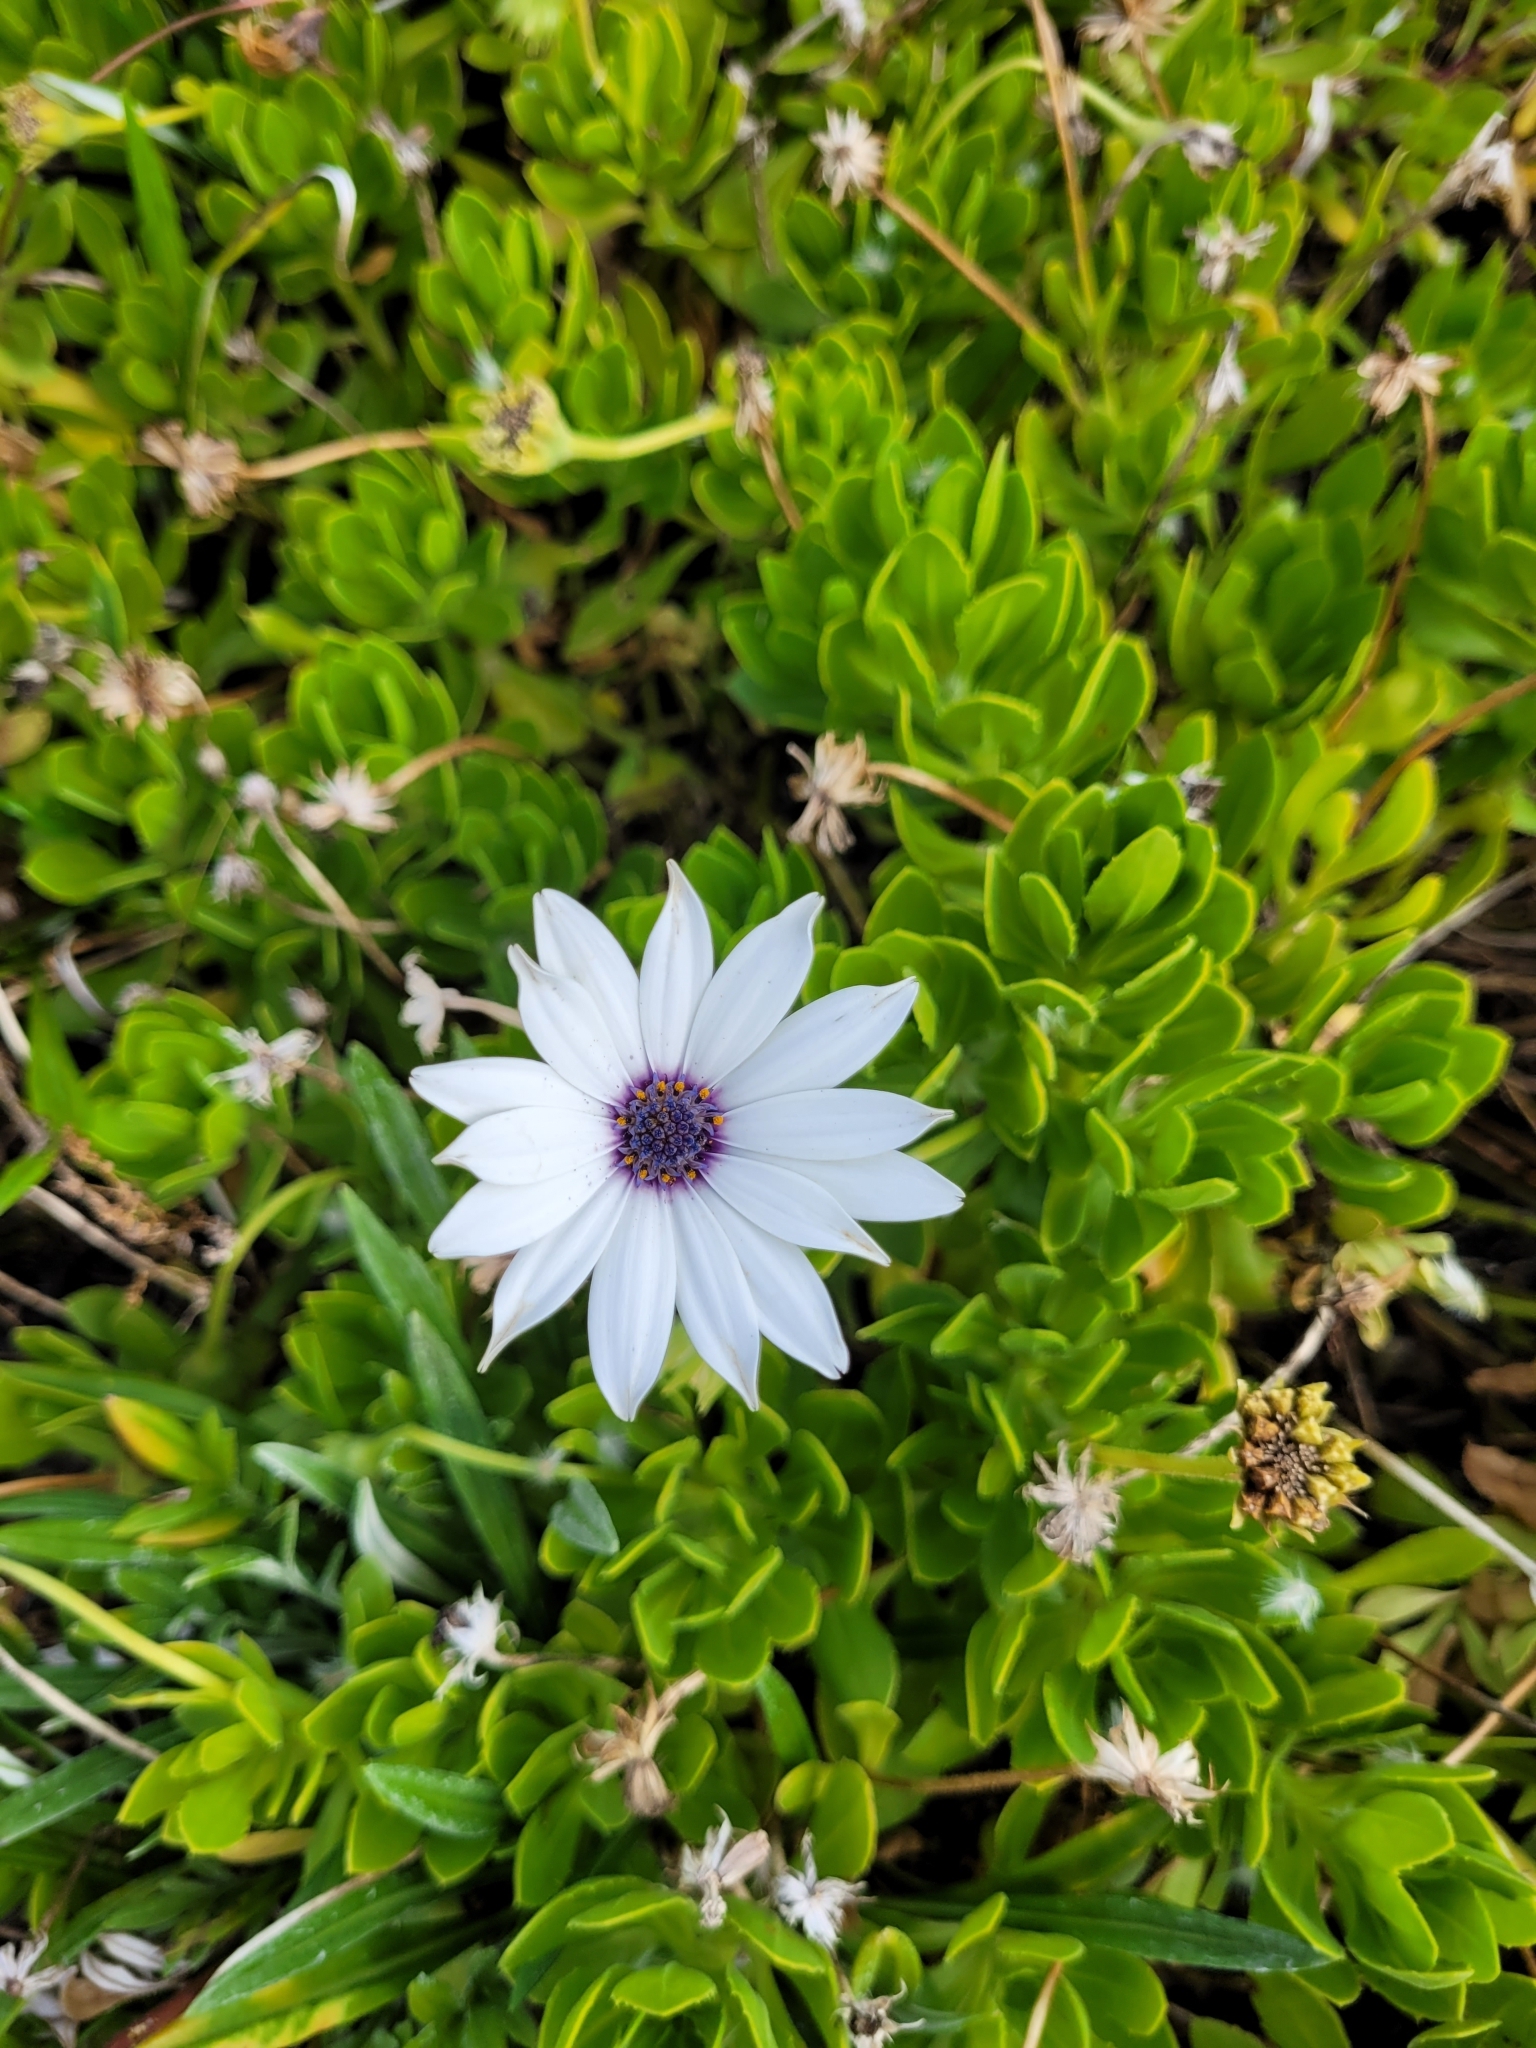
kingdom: Plantae
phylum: Tracheophyta
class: Magnoliopsida
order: Asterales
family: Asteraceae
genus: Dimorphotheca
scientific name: Dimorphotheca fruticosa
